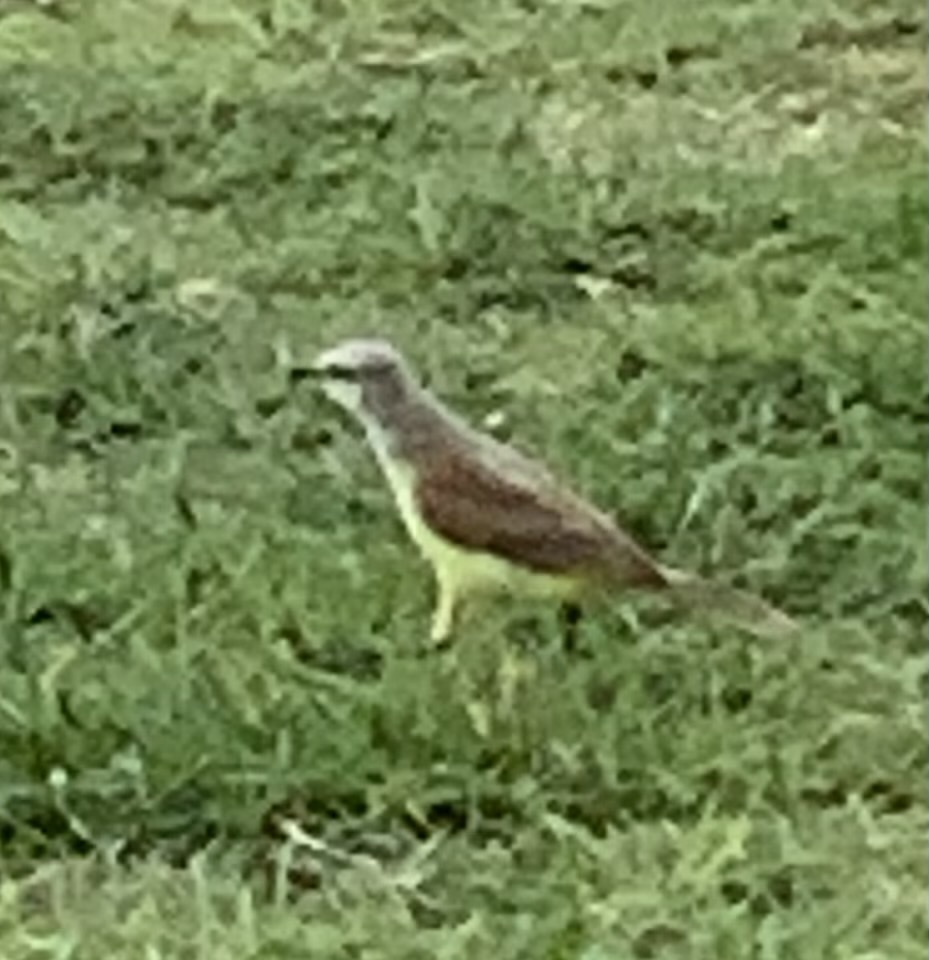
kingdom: Animalia
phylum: Chordata
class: Aves
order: Passeriformes
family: Tyrannidae
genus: Machetornis
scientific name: Machetornis rixosa
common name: Cattle tyrant
